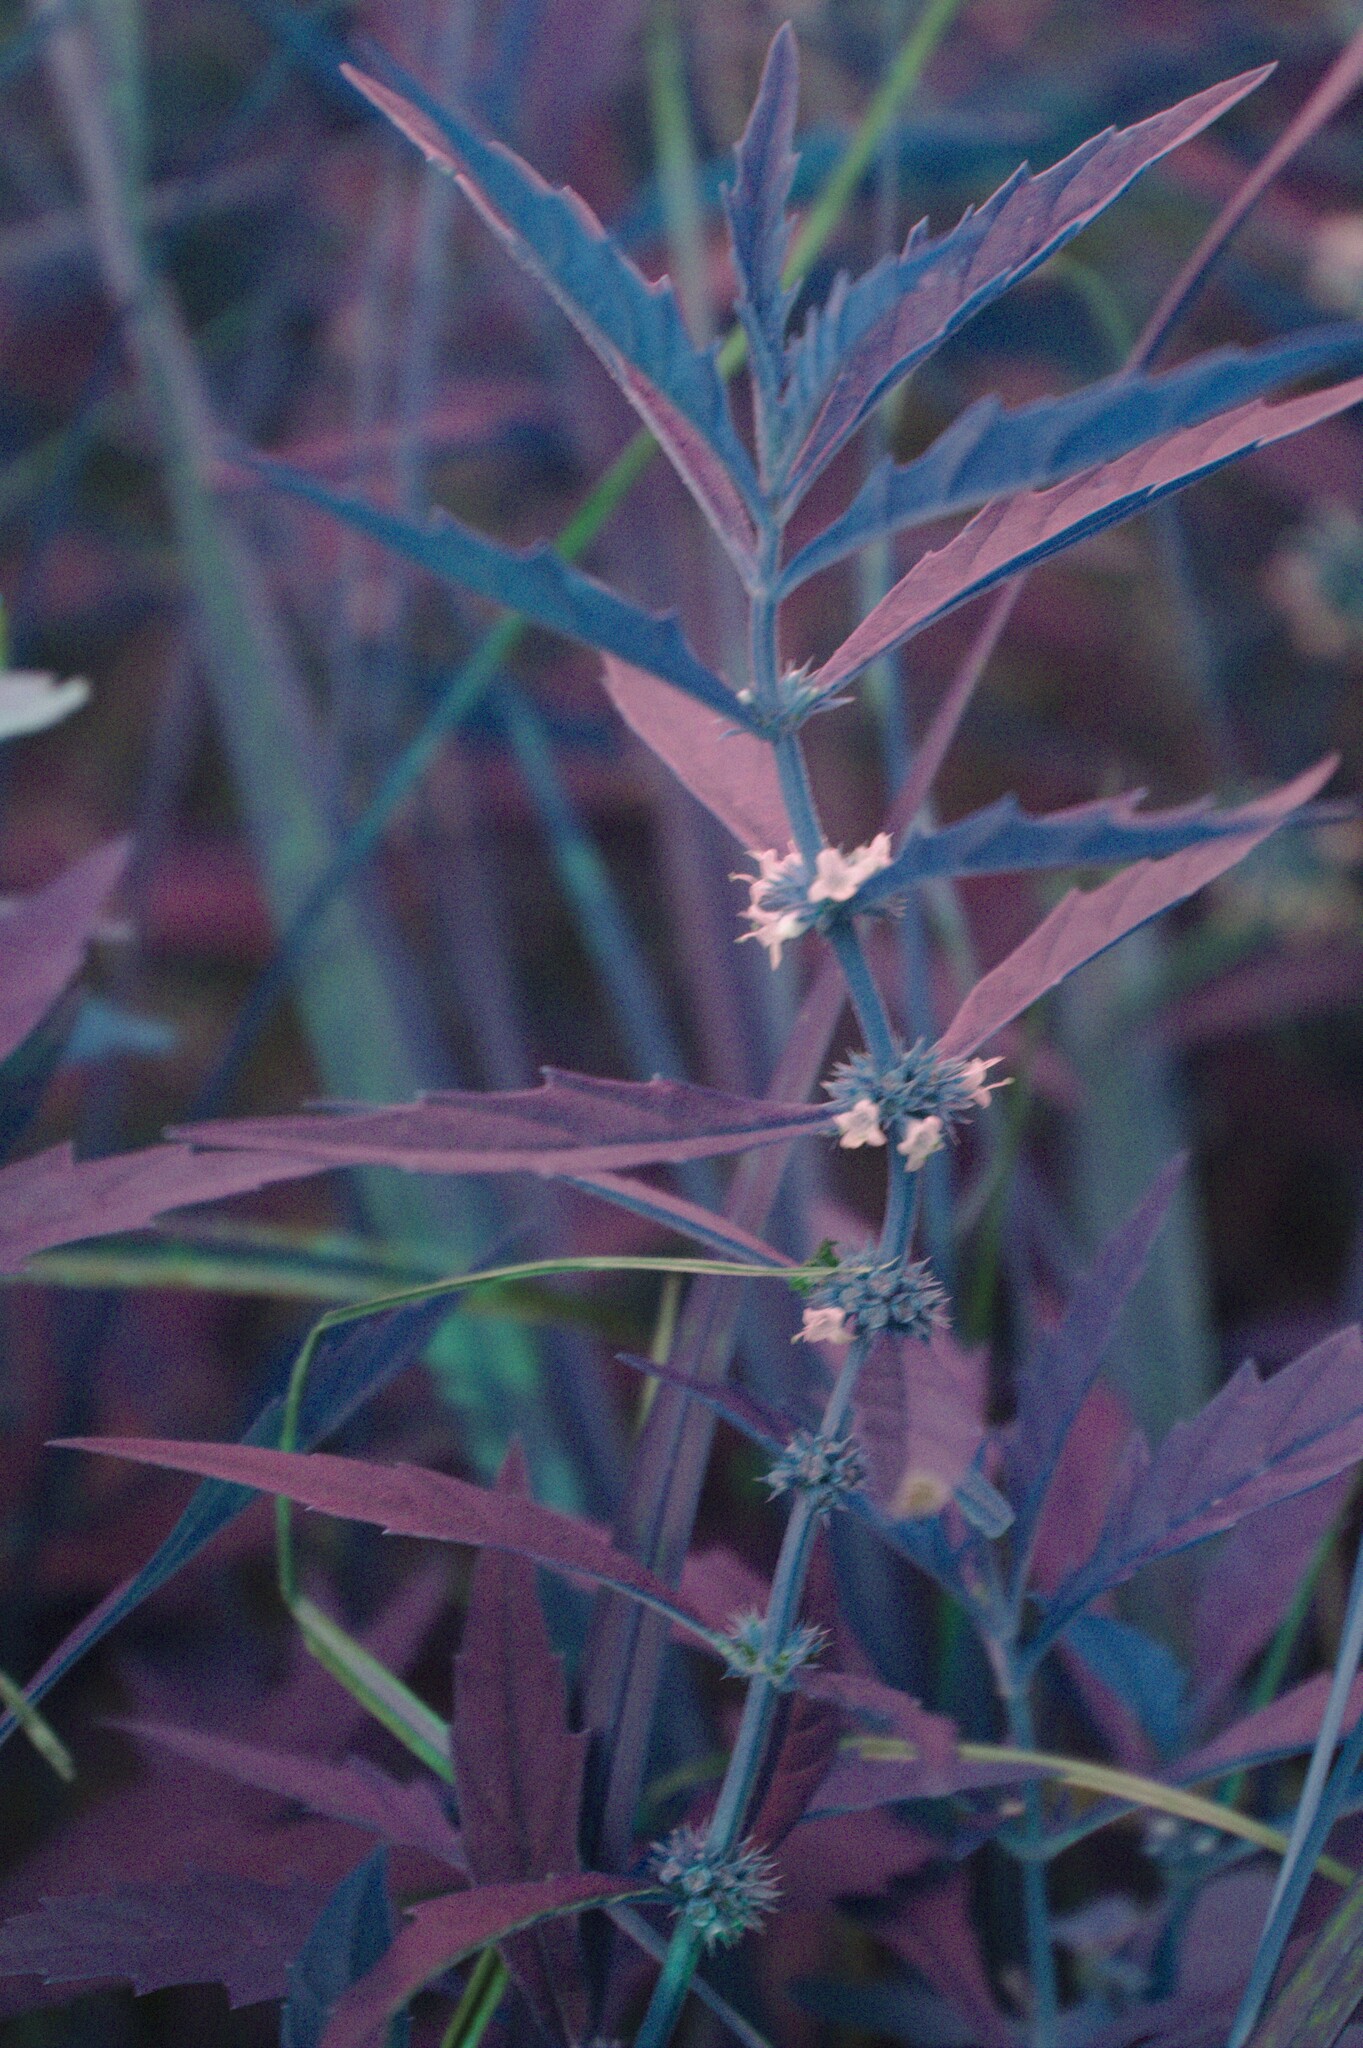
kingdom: Plantae
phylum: Tracheophyta
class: Magnoliopsida
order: Lamiales
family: Lamiaceae
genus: Lycopus
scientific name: Lycopus americanus
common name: American bugleweed
